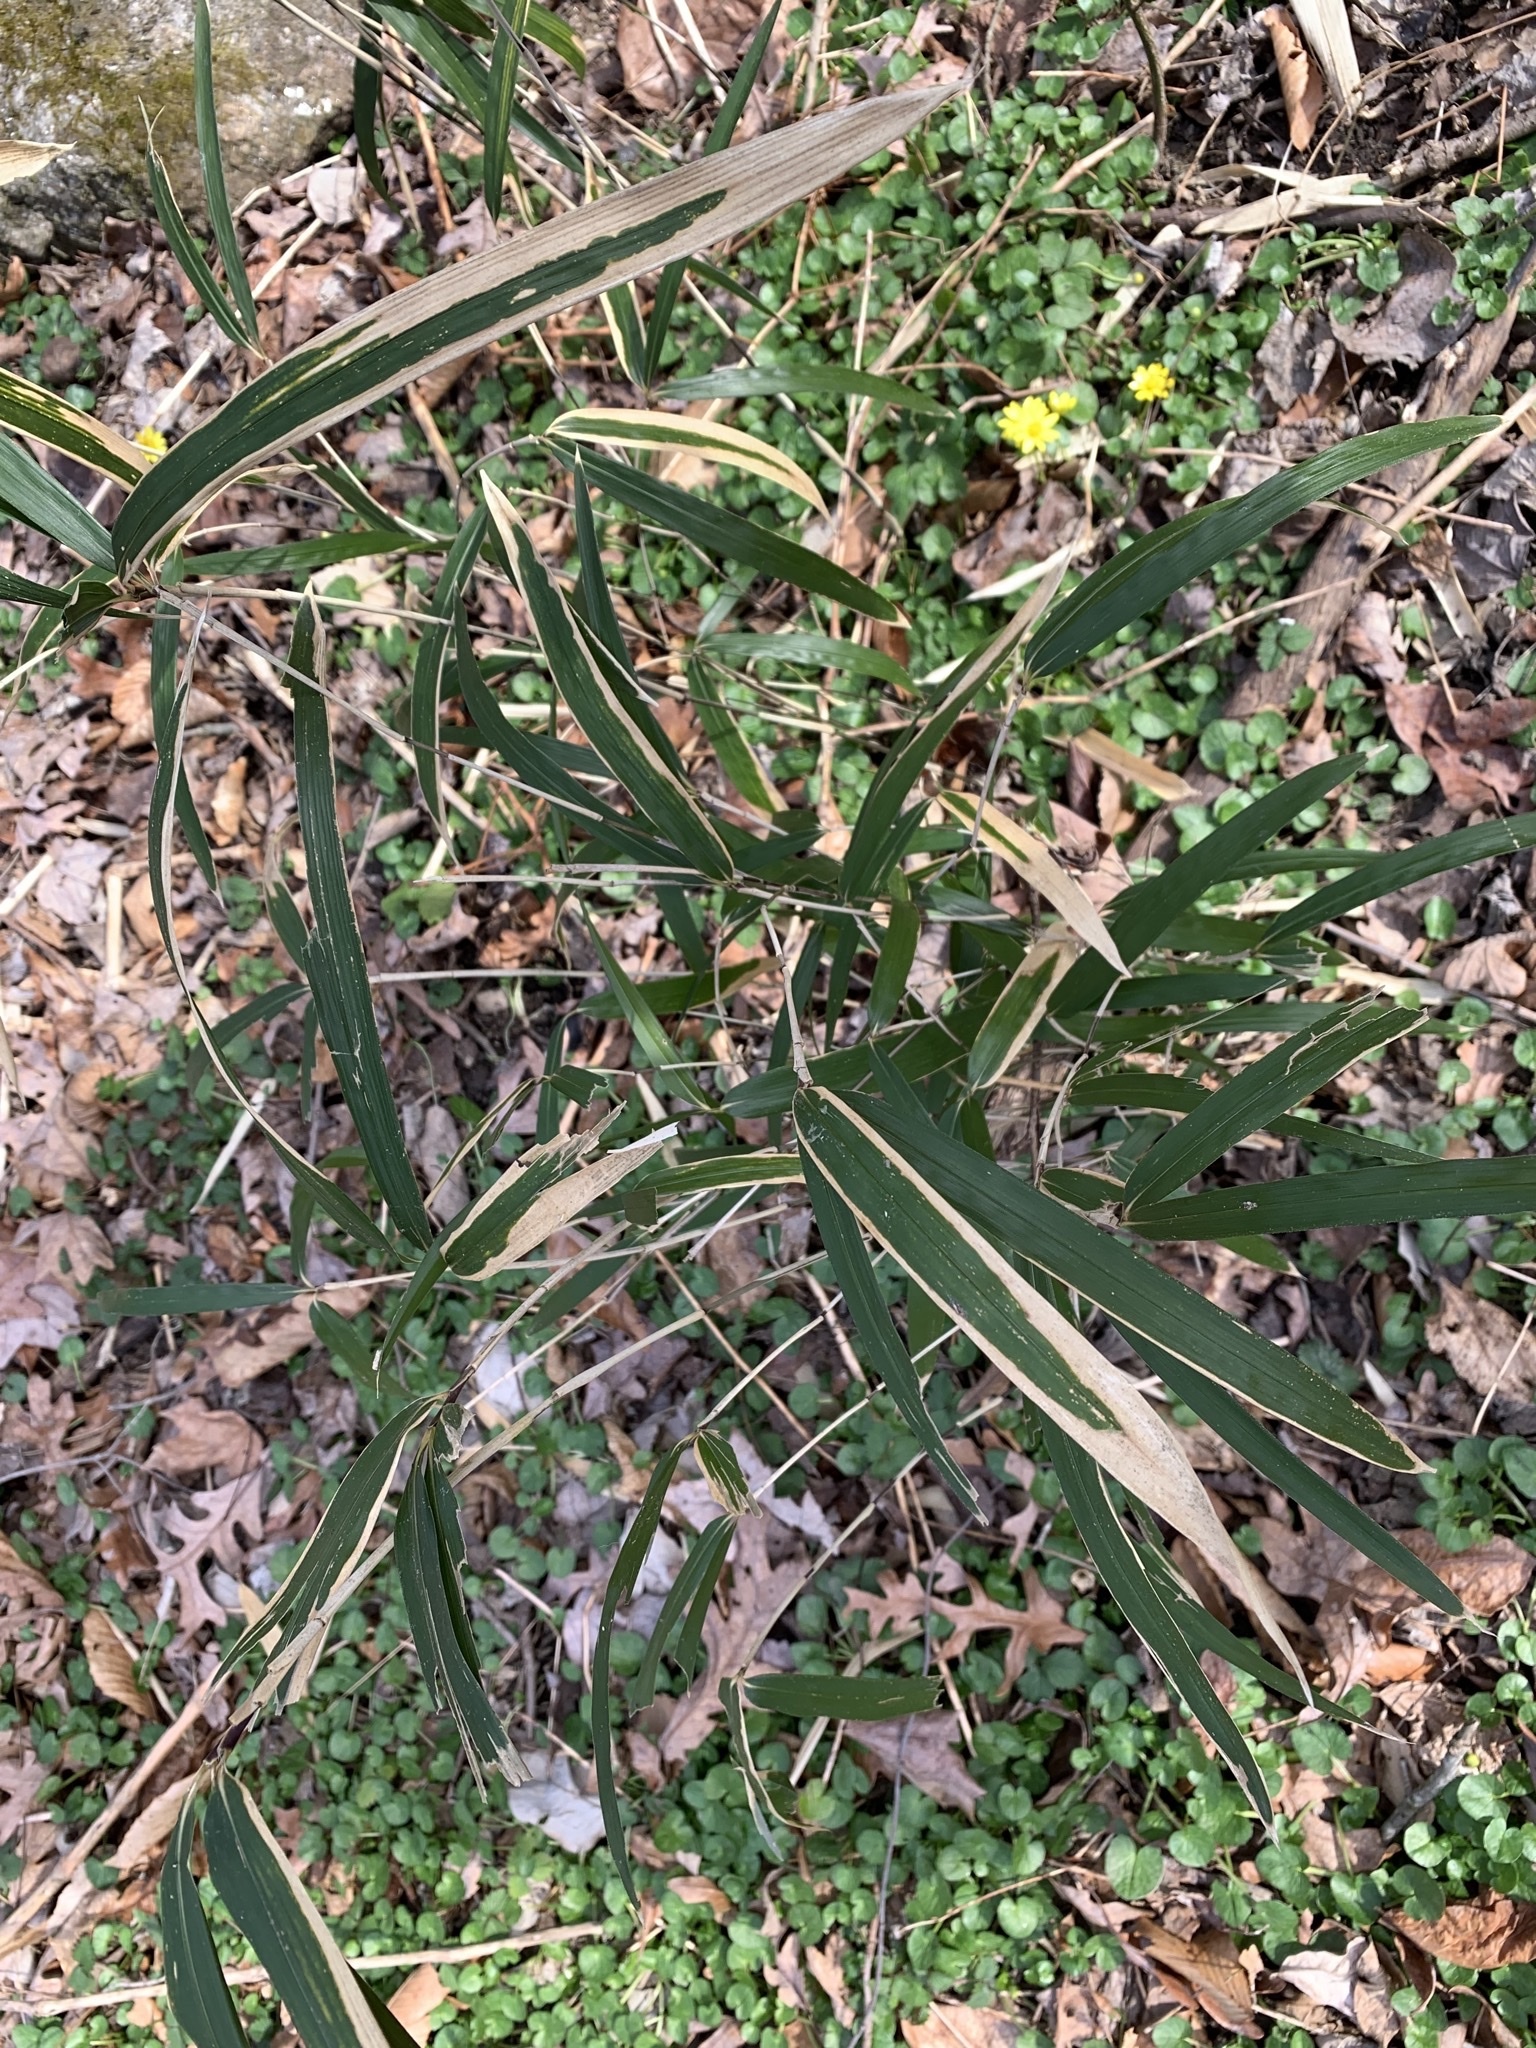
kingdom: Plantae
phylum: Tracheophyta
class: Liliopsida
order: Poales
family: Poaceae
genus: Arundinaria
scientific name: Arundinaria gigantea
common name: Giant cane
